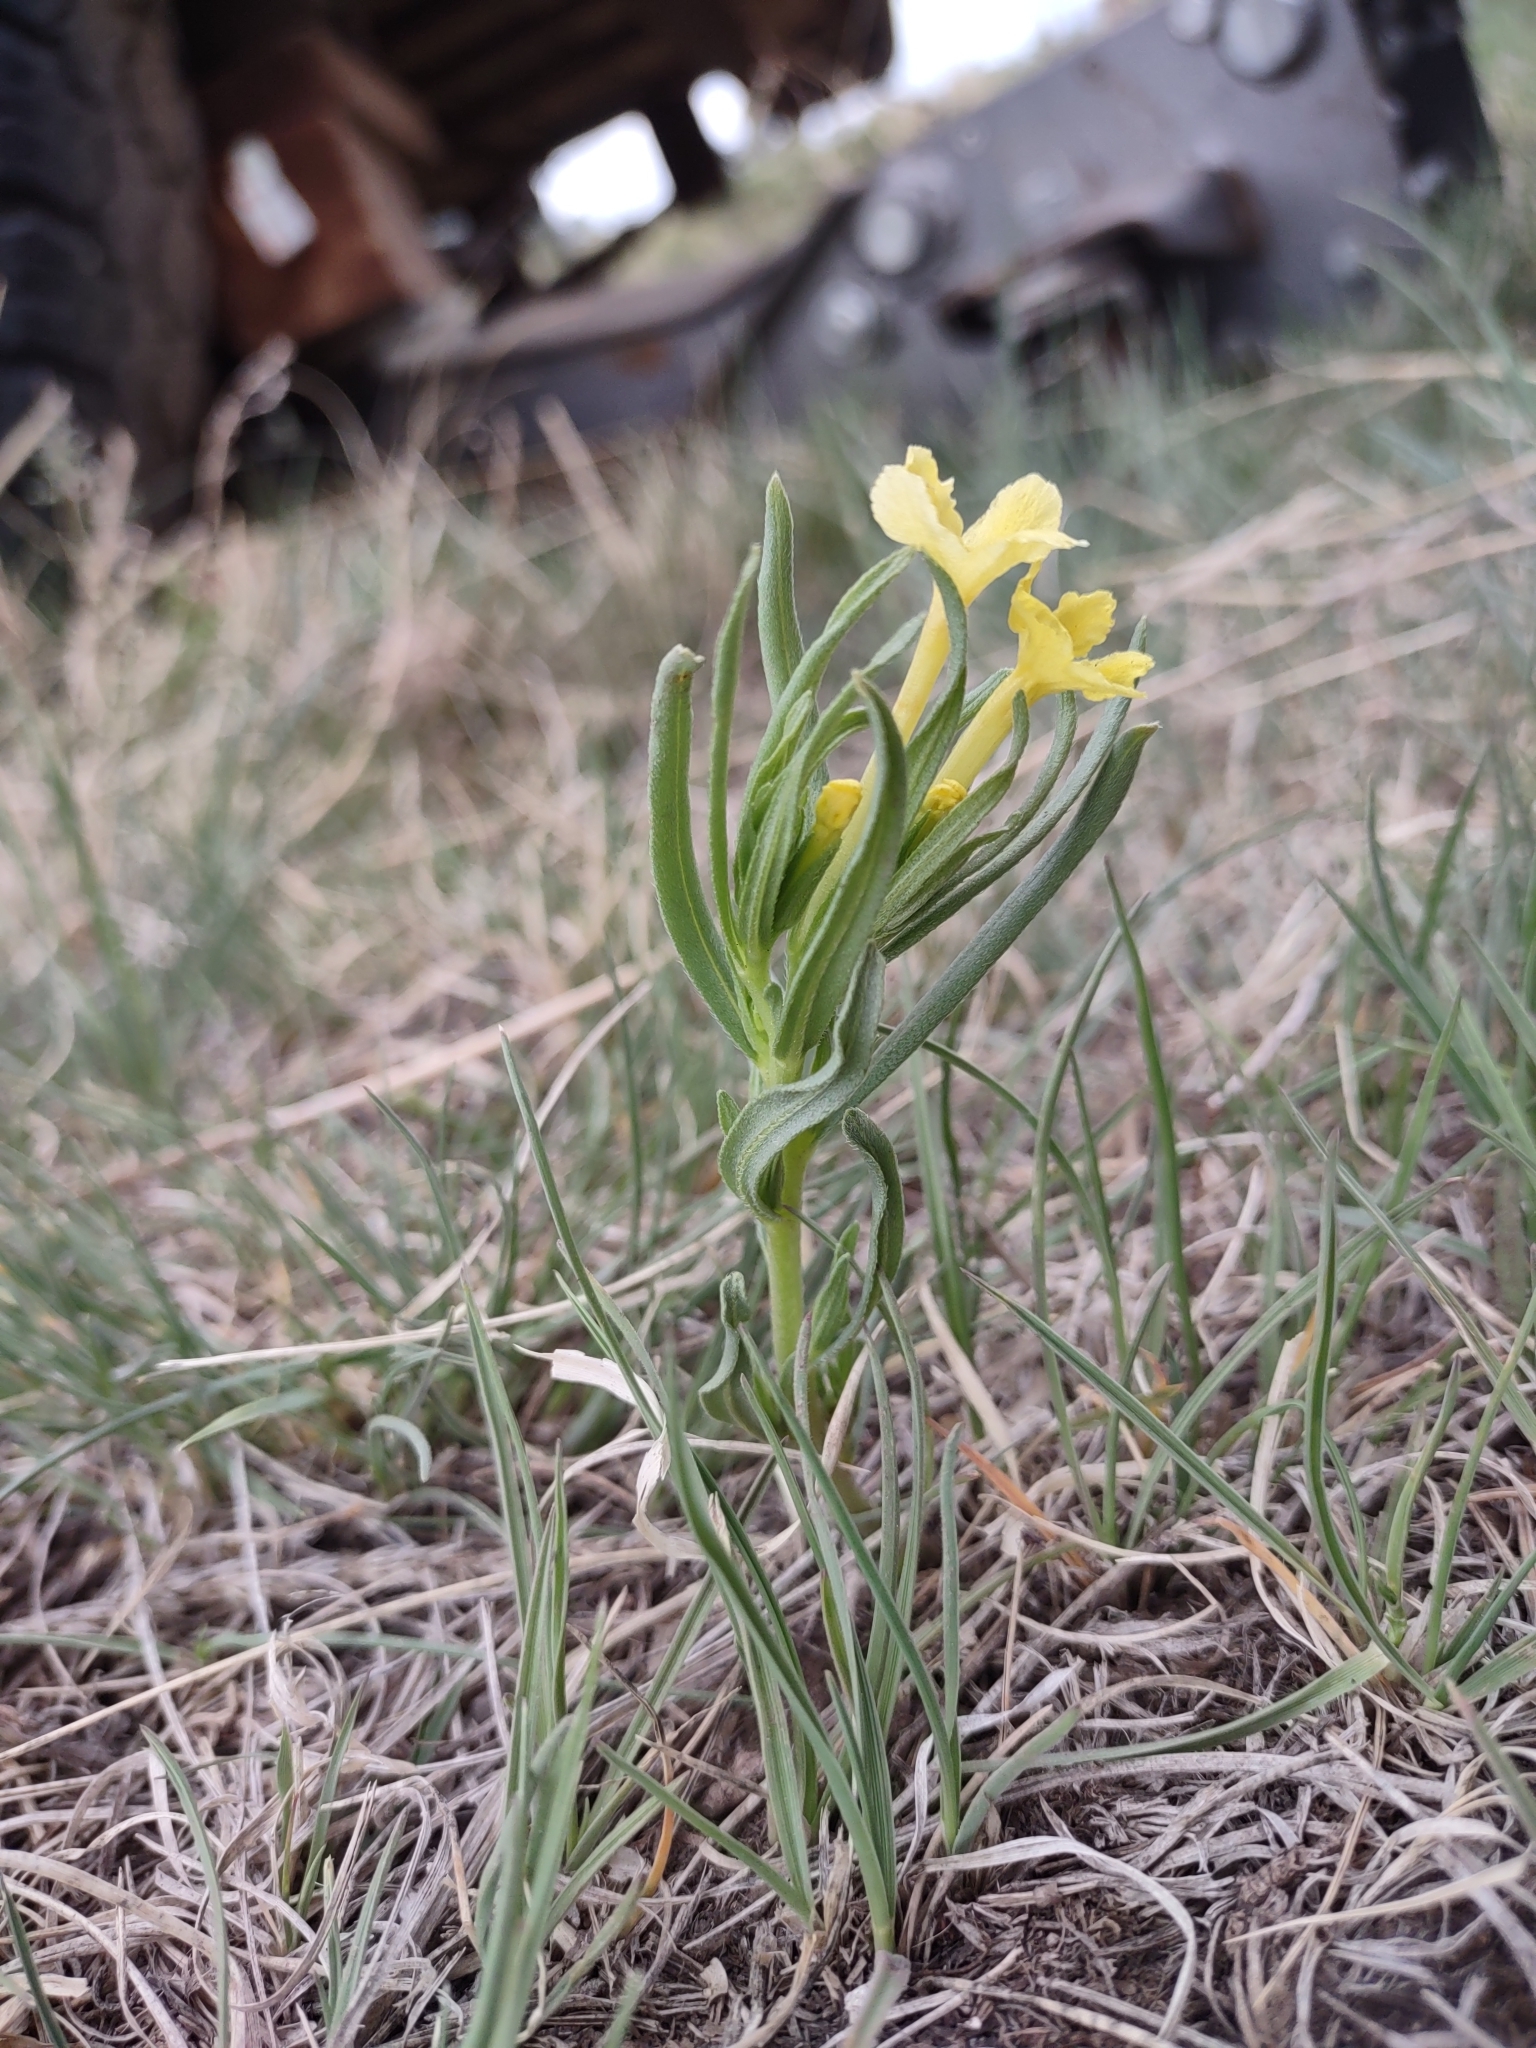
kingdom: Plantae
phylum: Tracheophyta
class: Magnoliopsida
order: Boraginales
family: Boraginaceae
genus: Lithospermum
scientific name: Lithospermum incisum
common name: Fringed gromwell
